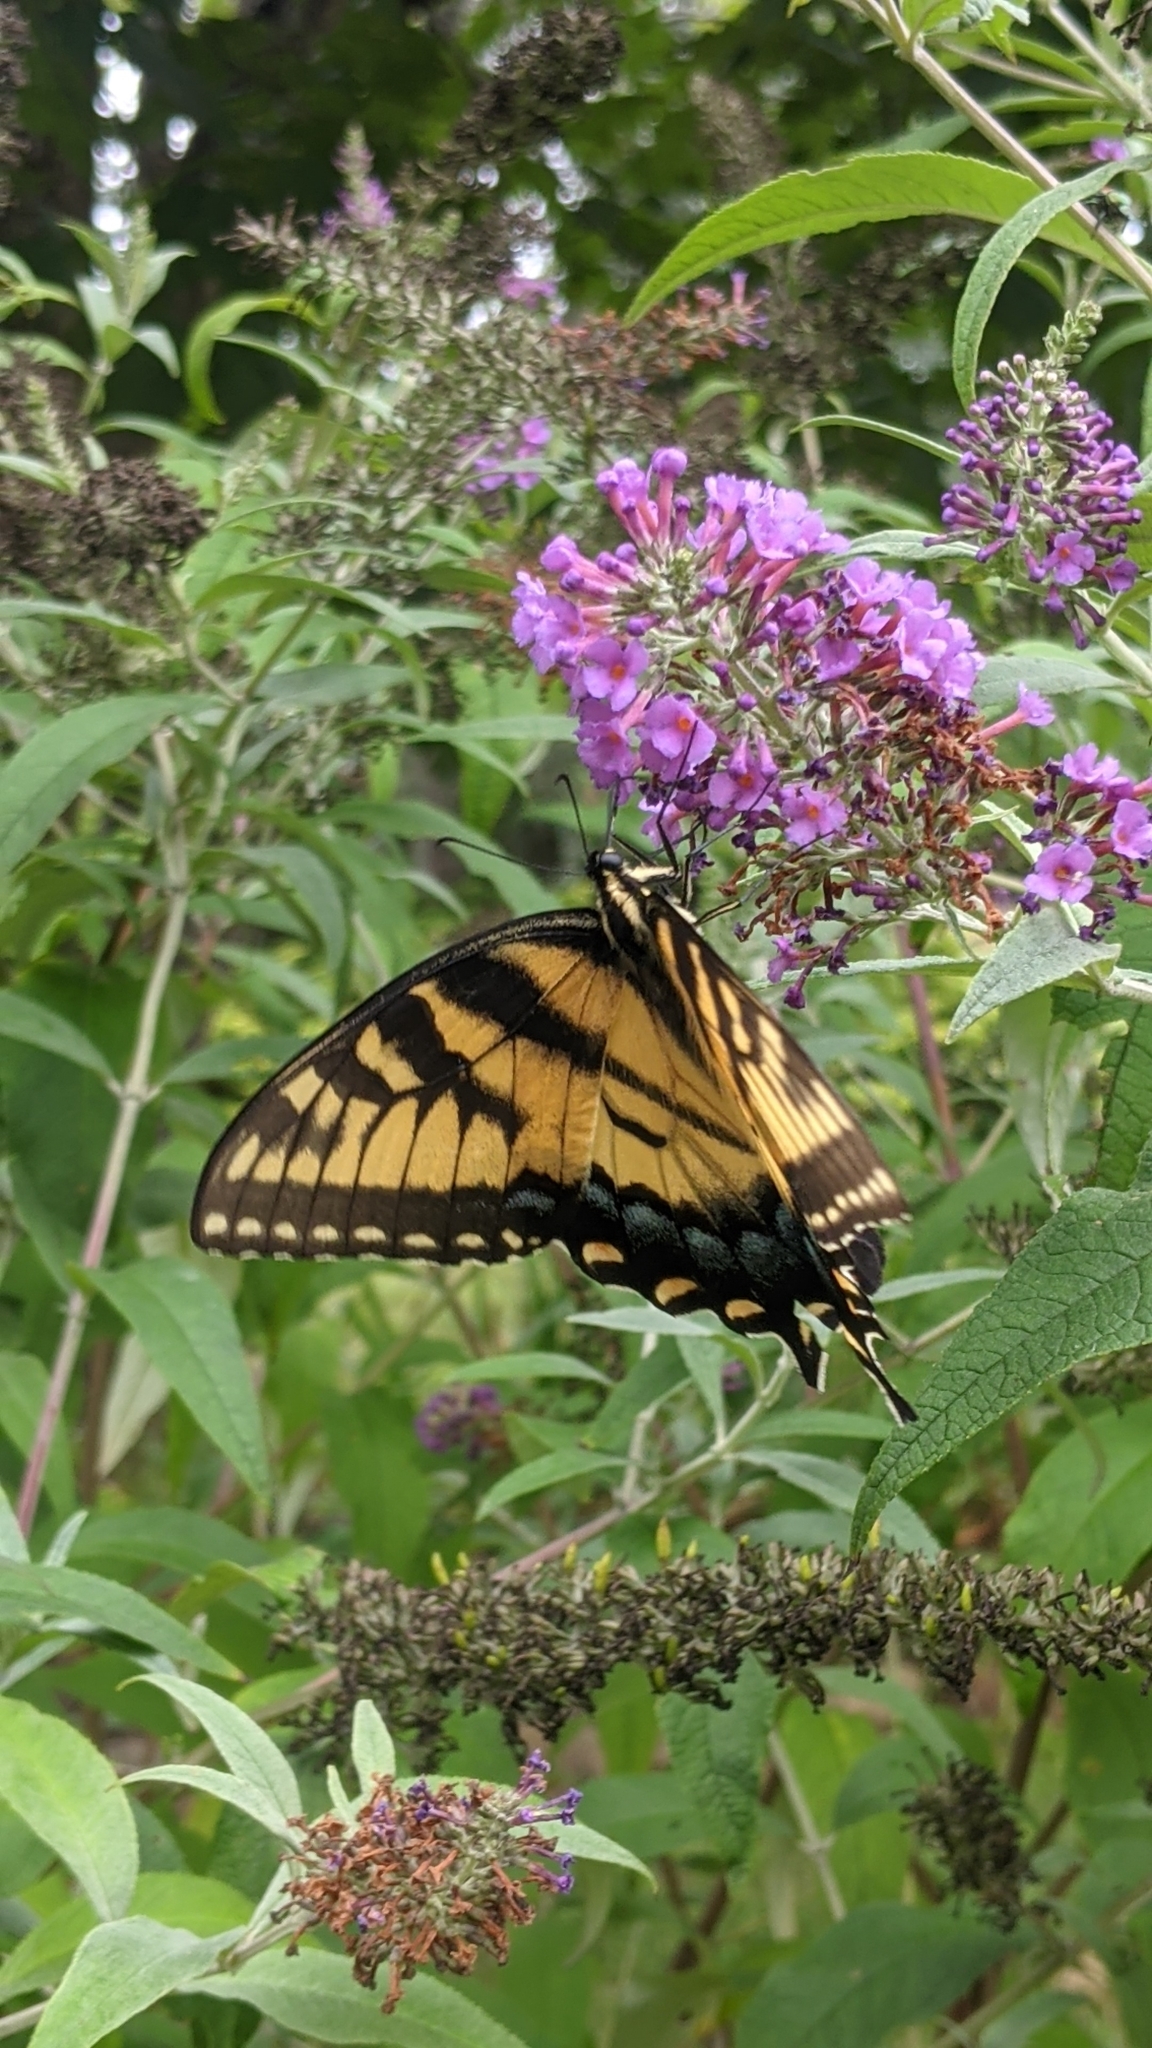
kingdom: Animalia
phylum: Arthropoda
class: Insecta
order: Lepidoptera
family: Papilionidae
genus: Papilio
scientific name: Papilio glaucus
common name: Tiger swallowtail
